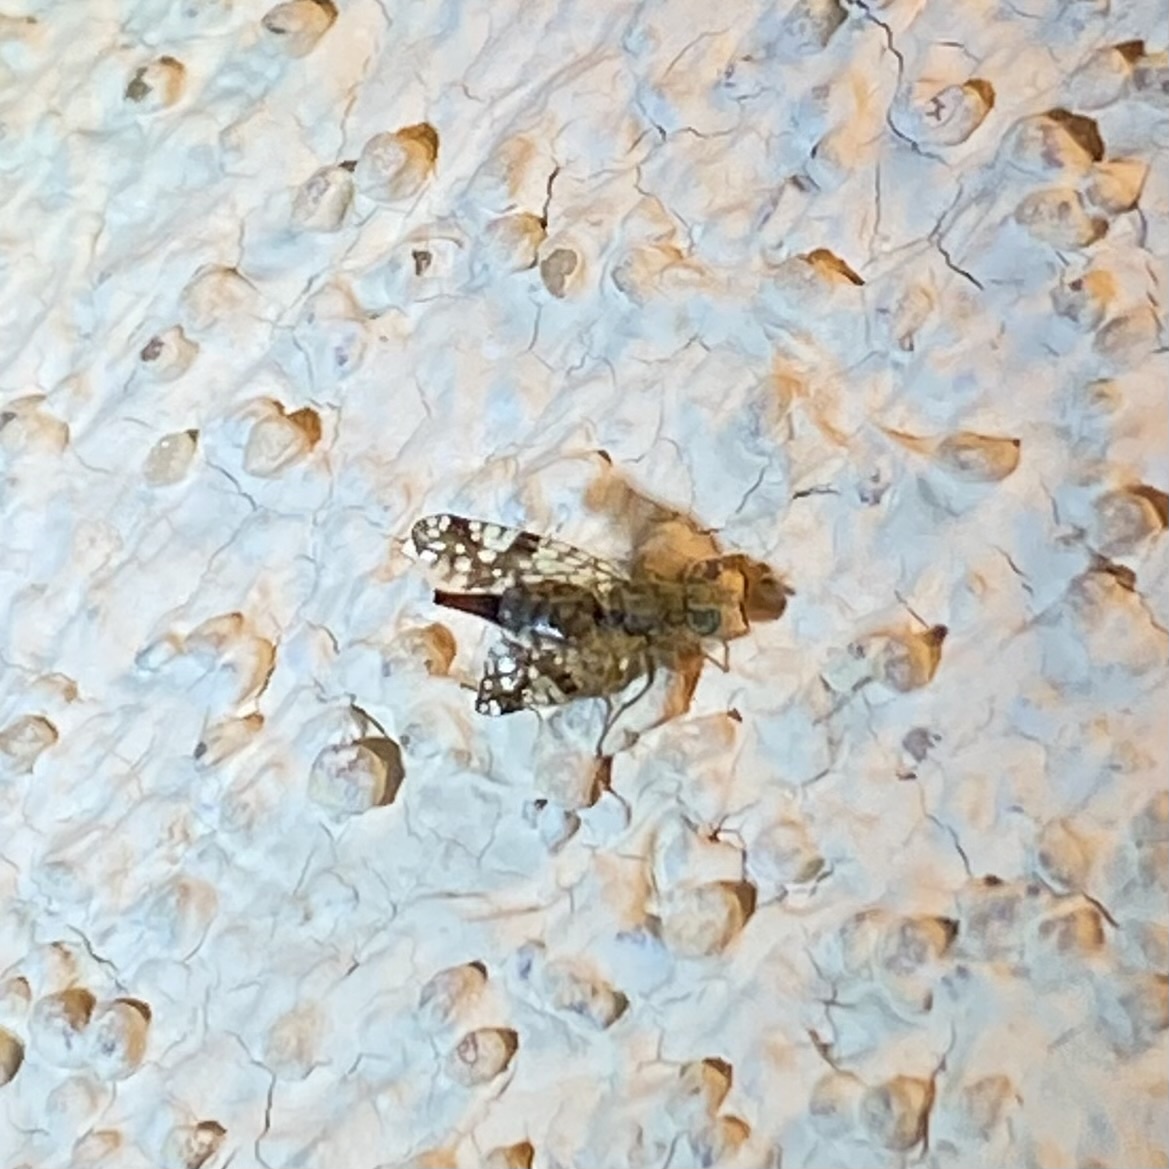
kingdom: Animalia
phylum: Arthropoda
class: Insecta
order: Diptera
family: Tephritidae
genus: Neotephritis
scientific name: Neotephritis finalis
